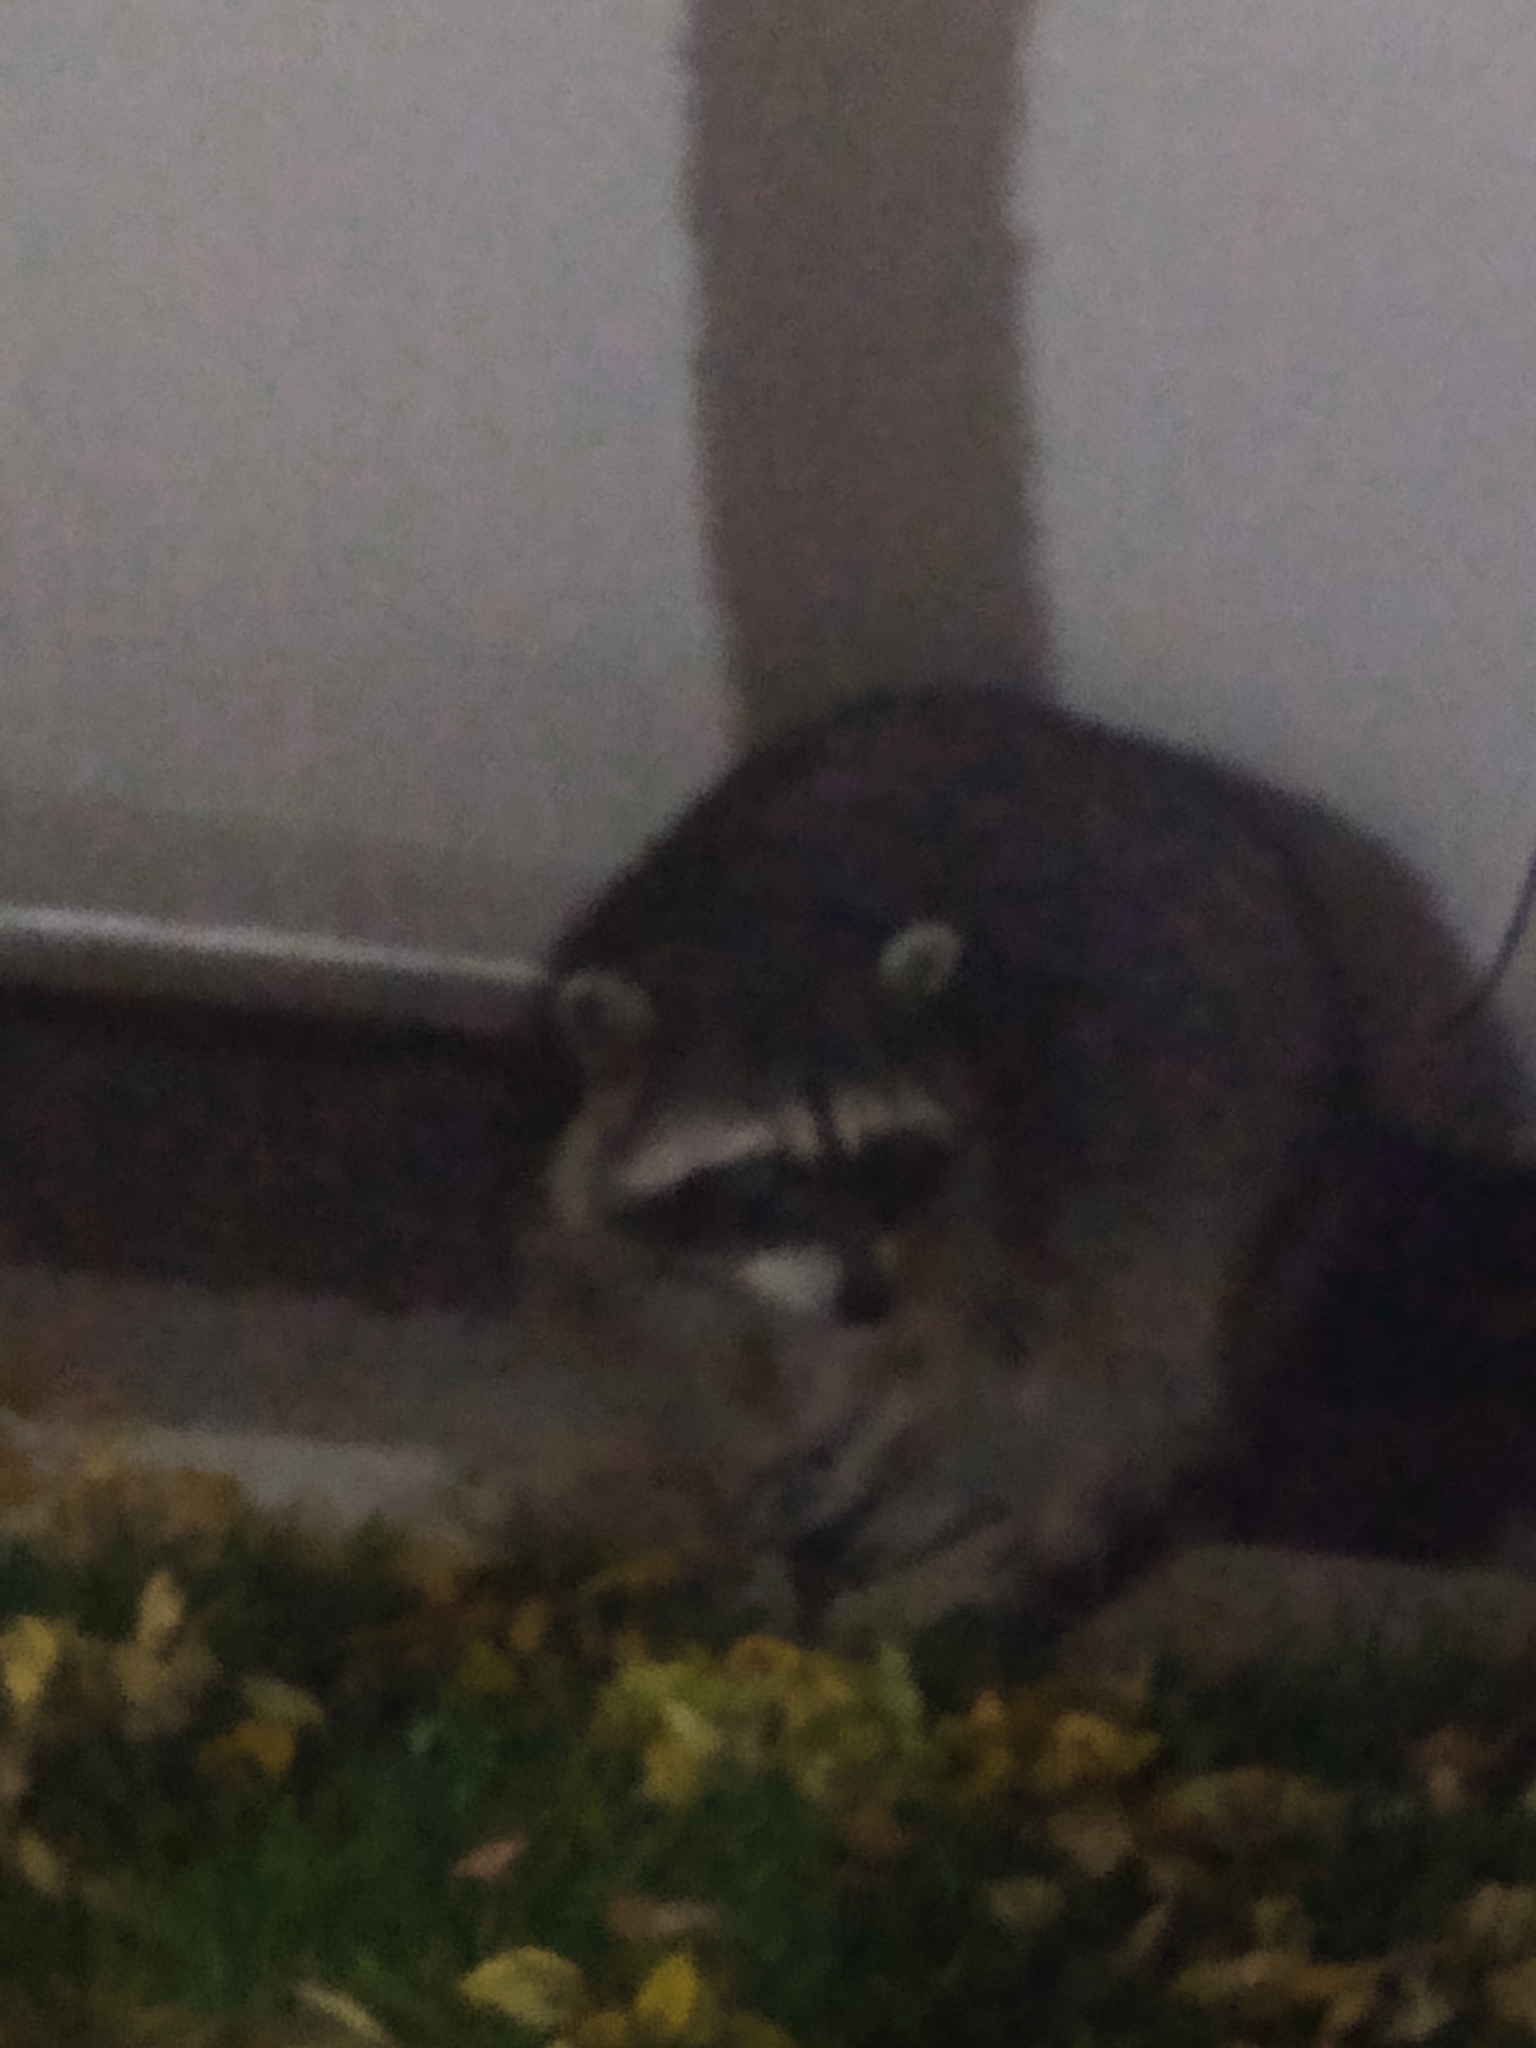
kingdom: Animalia
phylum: Chordata
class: Mammalia
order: Carnivora
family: Procyonidae
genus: Procyon
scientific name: Procyon lotor
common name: Raccoon
